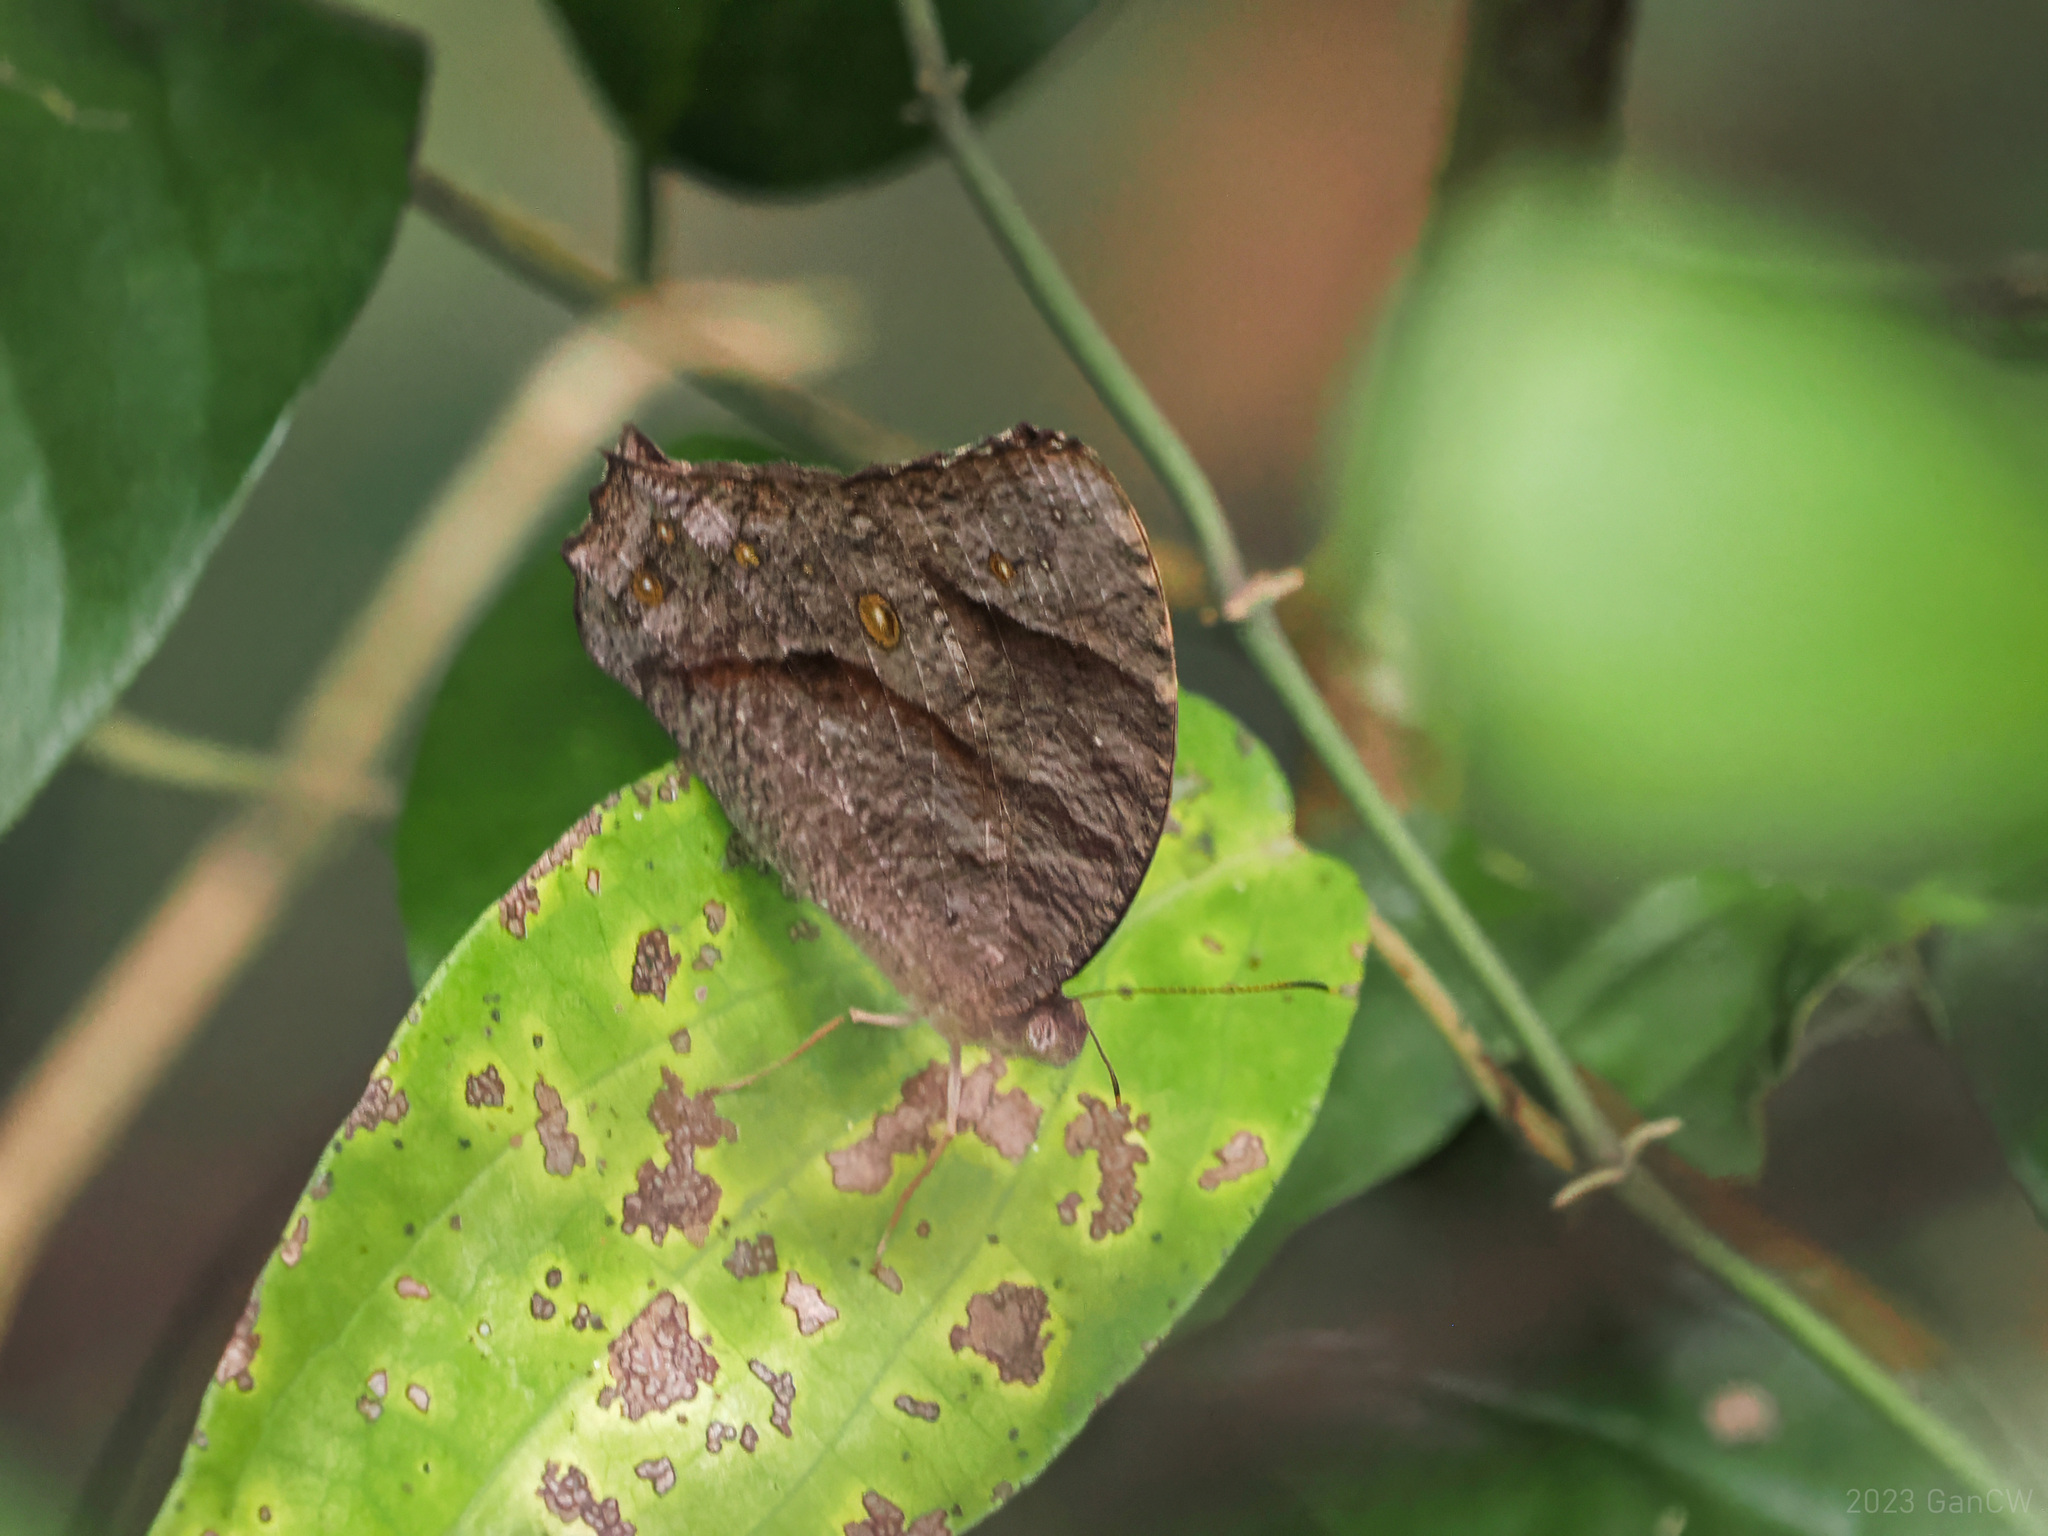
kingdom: Animalia
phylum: Arthropoda
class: Insecta
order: Lepidoptera
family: Nymphalidae
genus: Melanitis
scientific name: Melanitis leda
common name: Twilight brown
